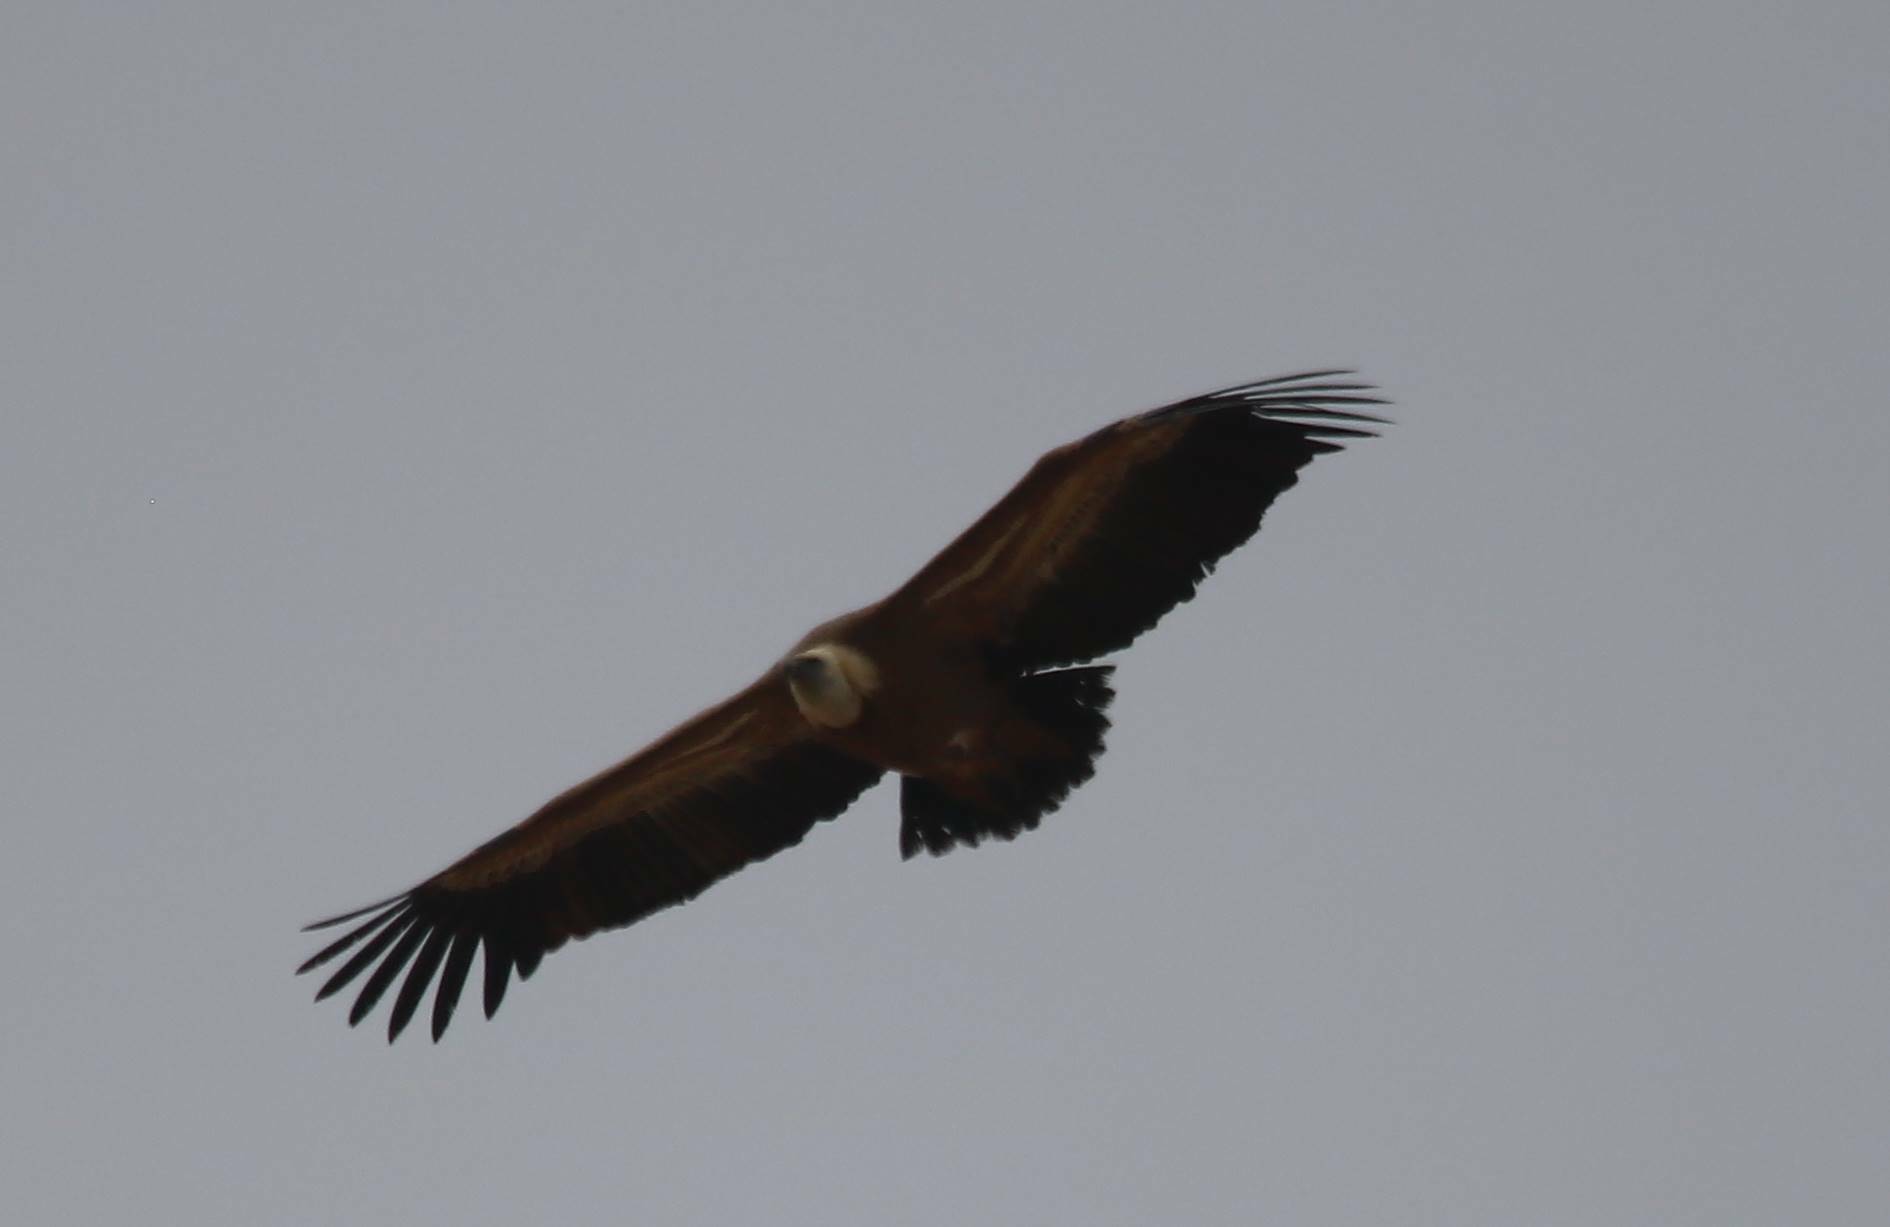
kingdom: Animalia
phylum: Chordata
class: Aves
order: Accipitriformes
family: Accipitridae
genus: Gyps
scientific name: Gyps fulvus
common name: Griffon vulture
